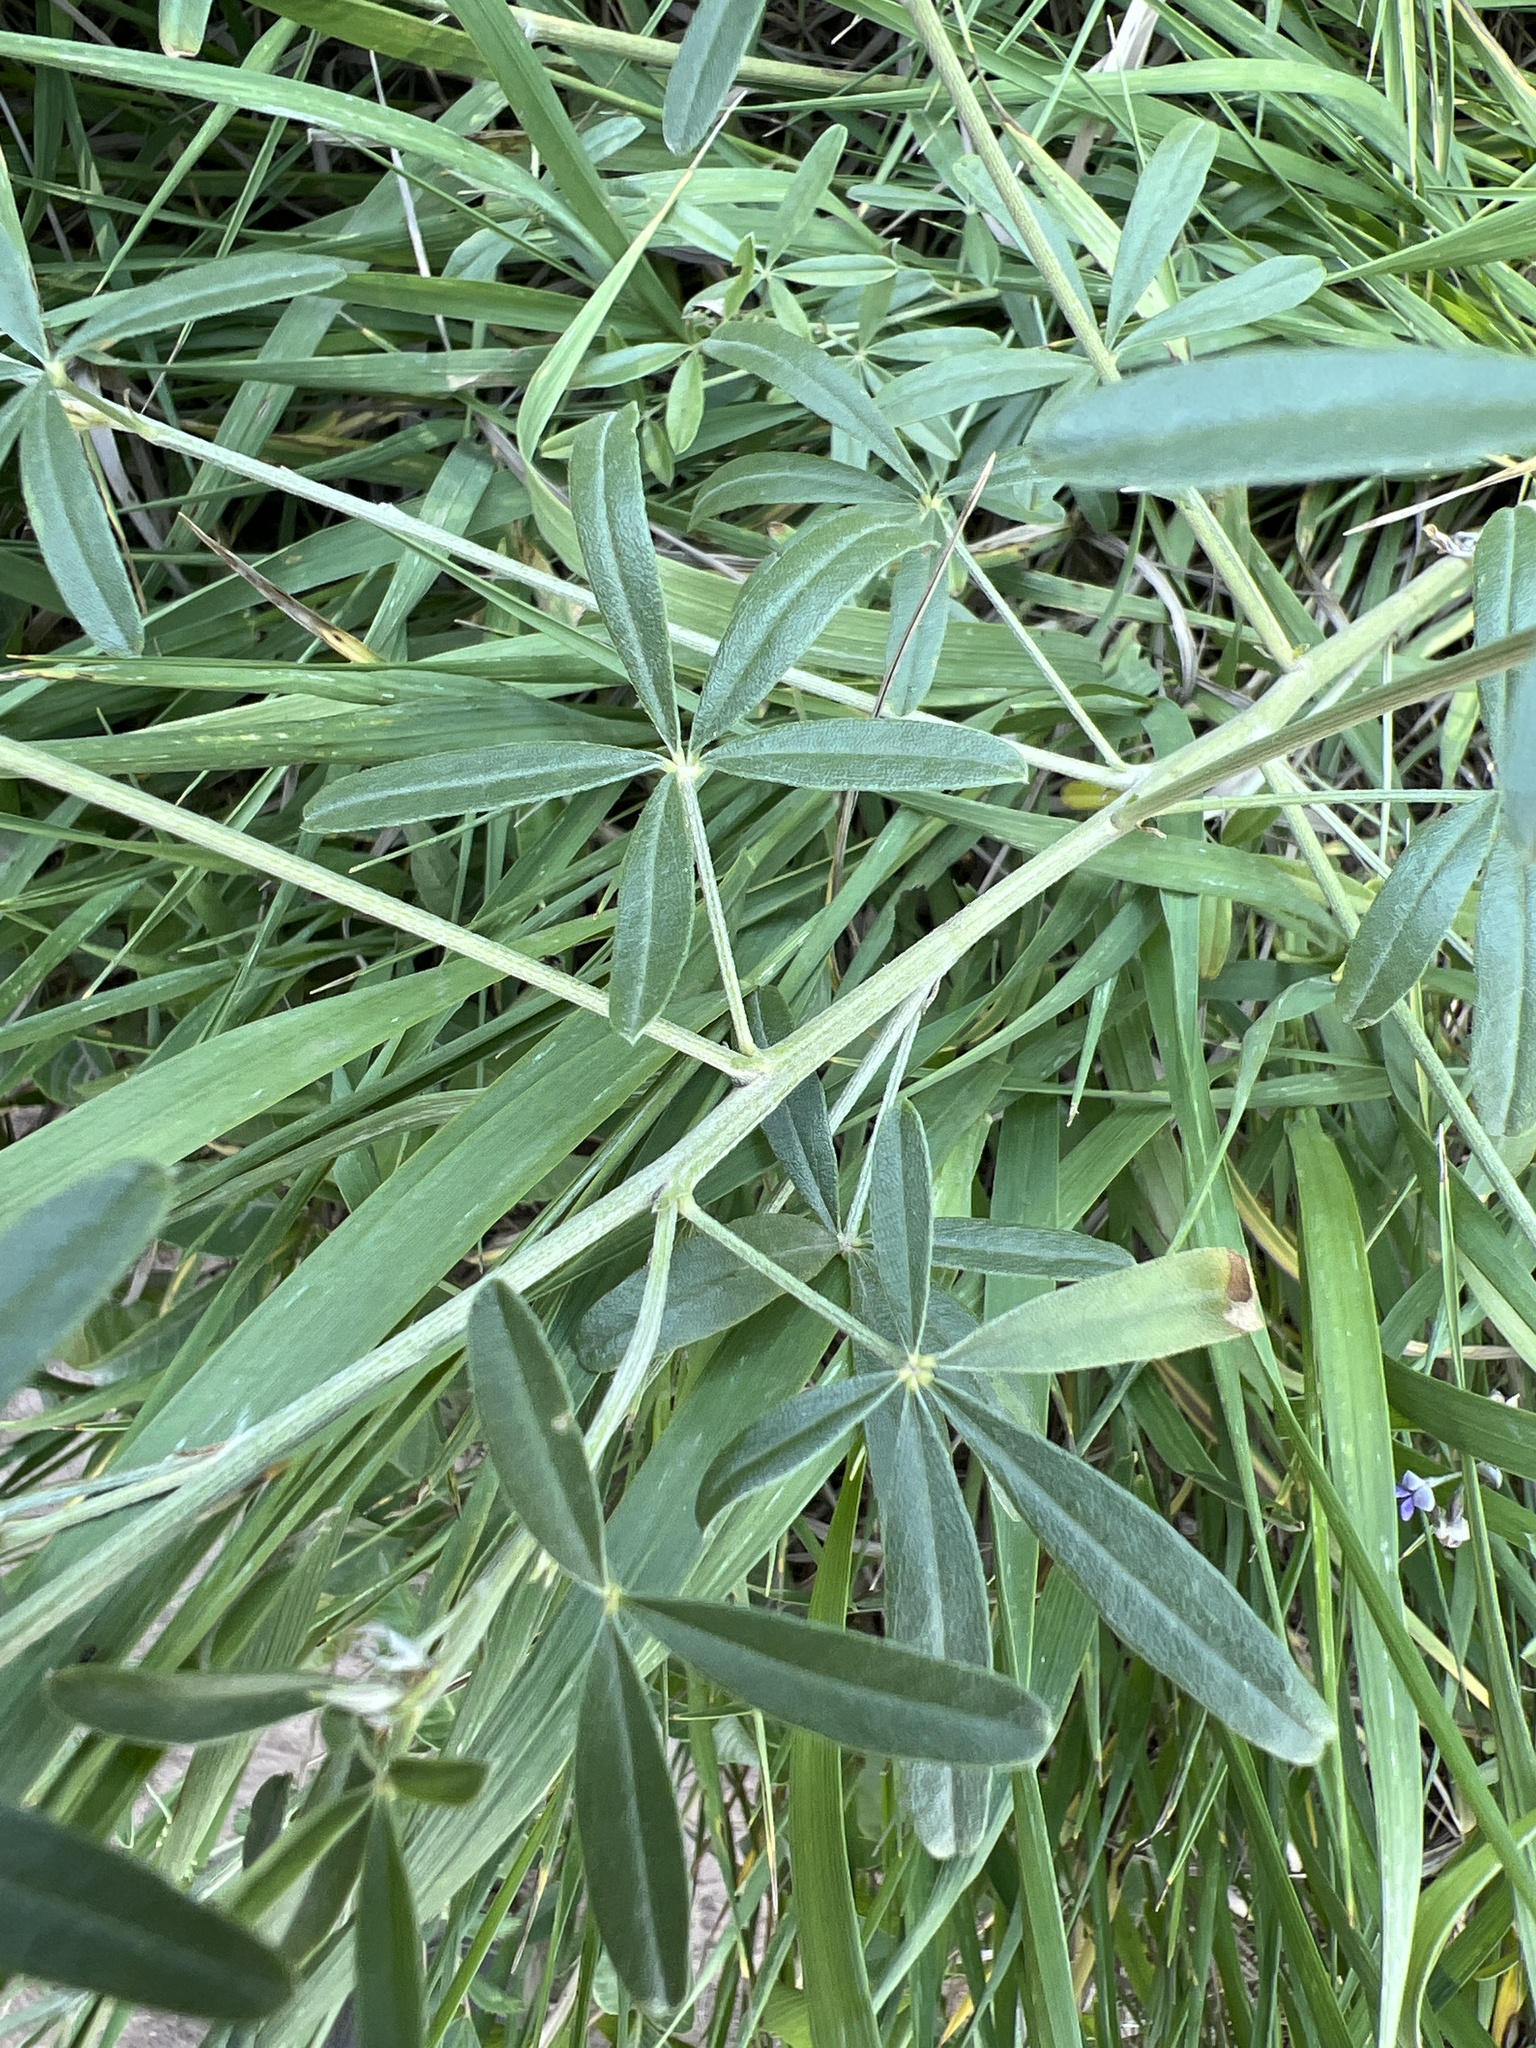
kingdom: Plantae
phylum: Tracheophyta
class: Magnoliopsida
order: Fabales
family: Fabaceae
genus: Pediomelum
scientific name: Pediomelum tenuiflorum
